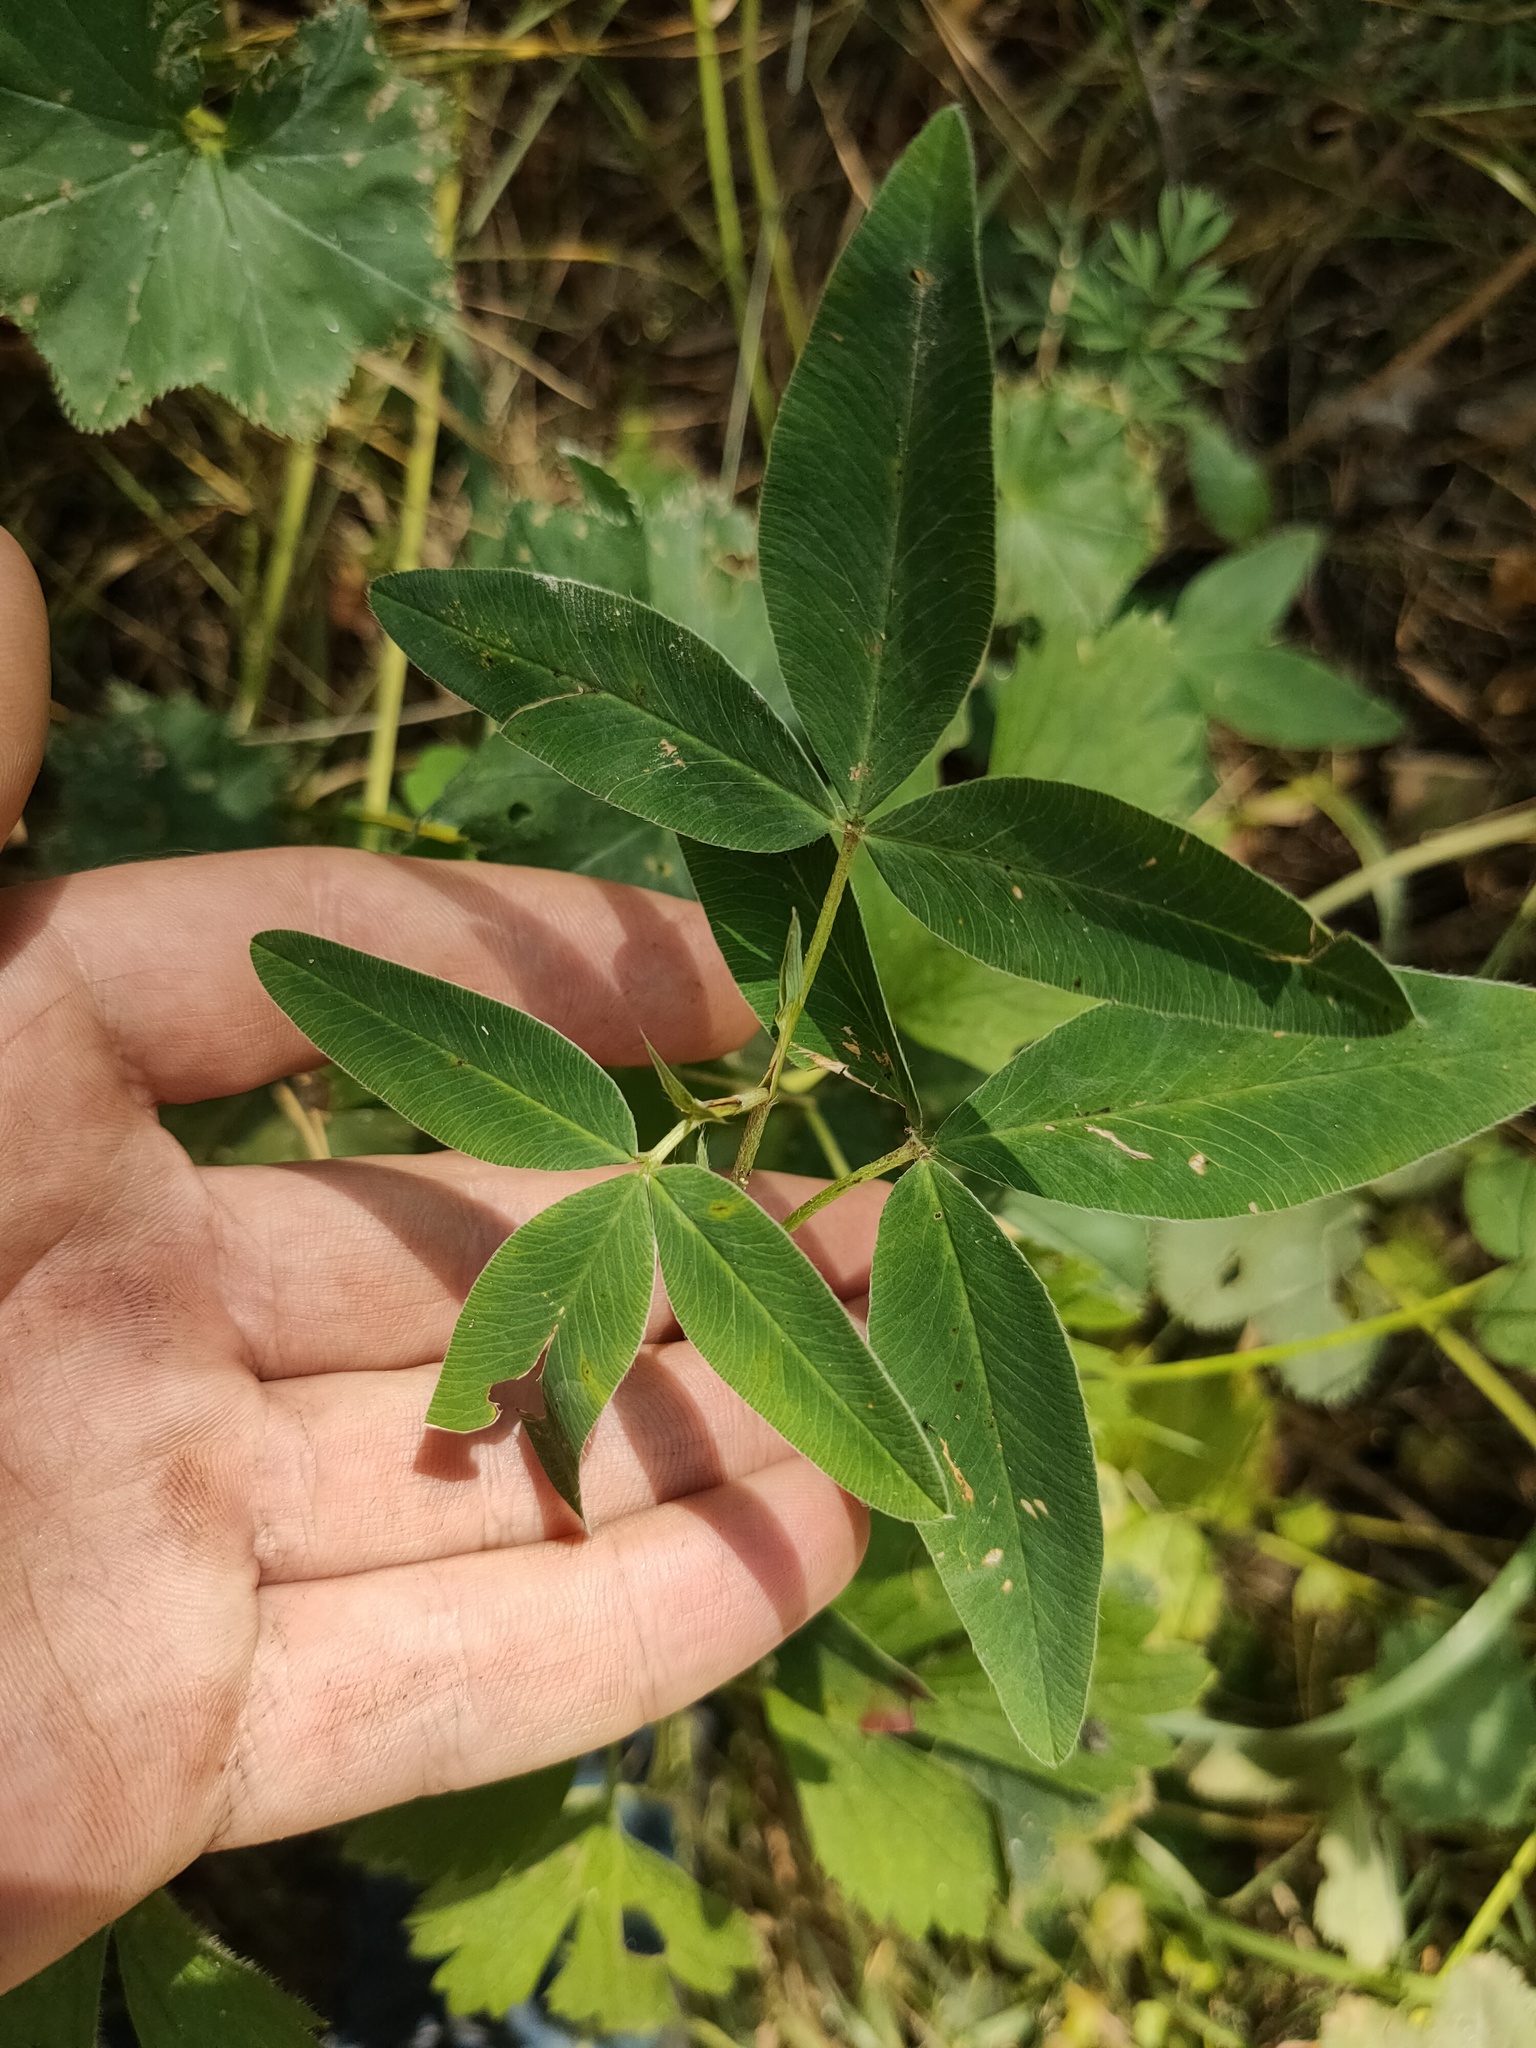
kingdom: Plantae
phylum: Tracheophyta
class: Magnoliopsida
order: Fabales
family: Fabaceae
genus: Trifolium
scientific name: Trifolium medium
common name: Zigzag clover
